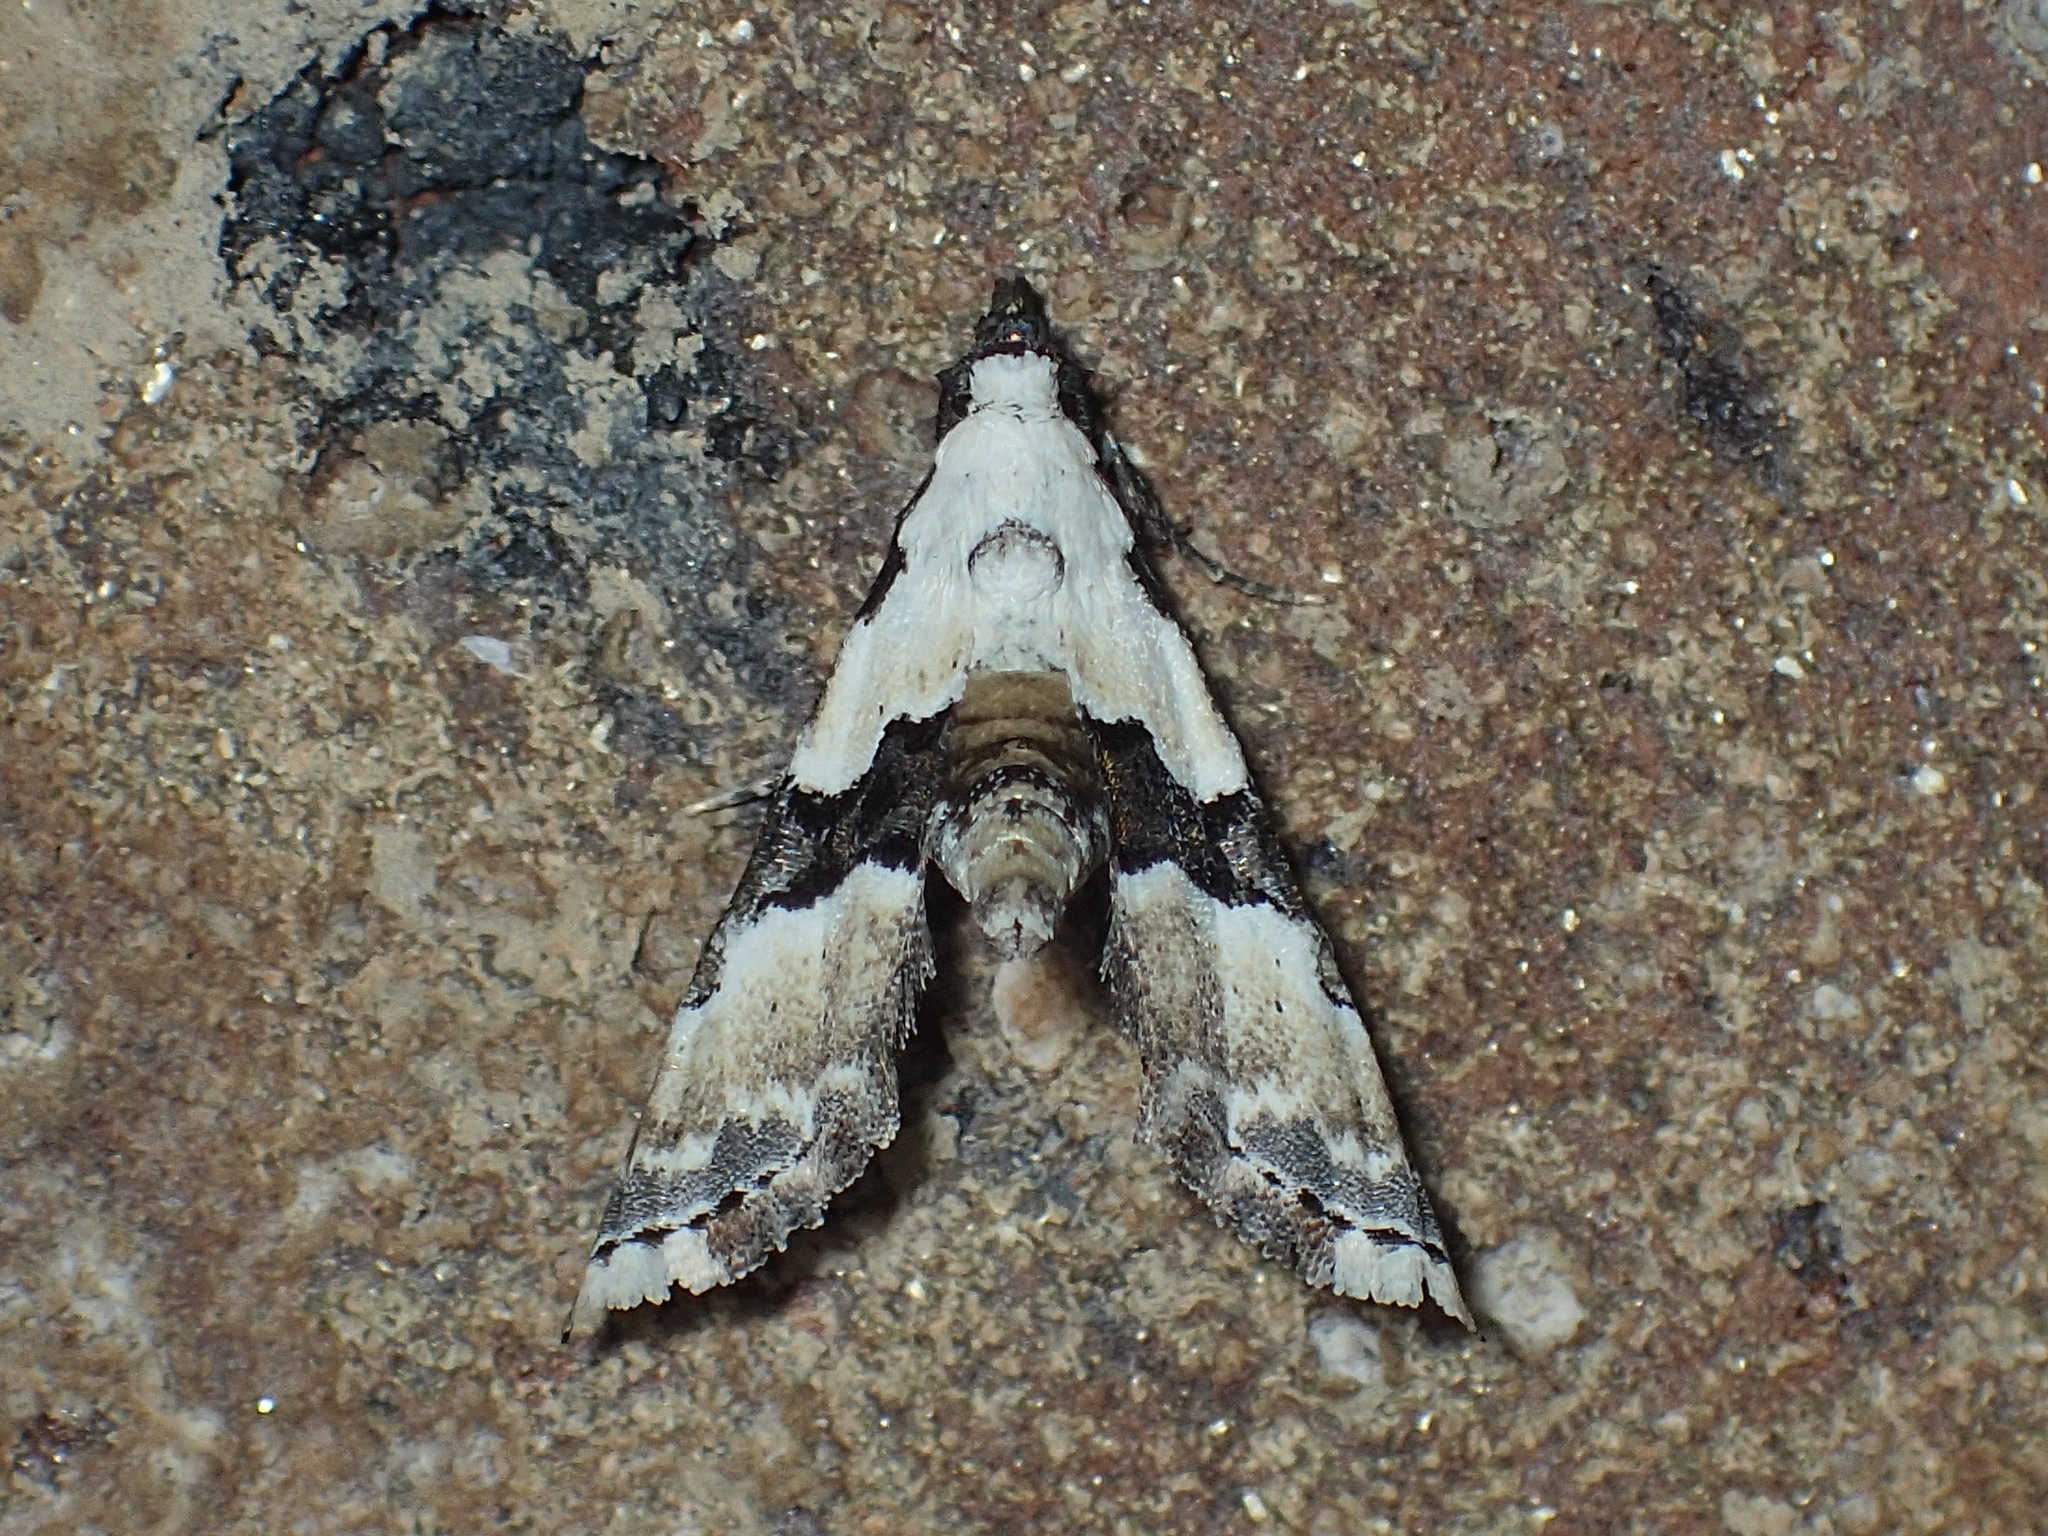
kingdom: Animalia
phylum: Arthropoda
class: Insecta
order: Lepidoptera
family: Noctuidae
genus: Nigetia
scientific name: Nigetia formosalis
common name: Thin-winged owlet
